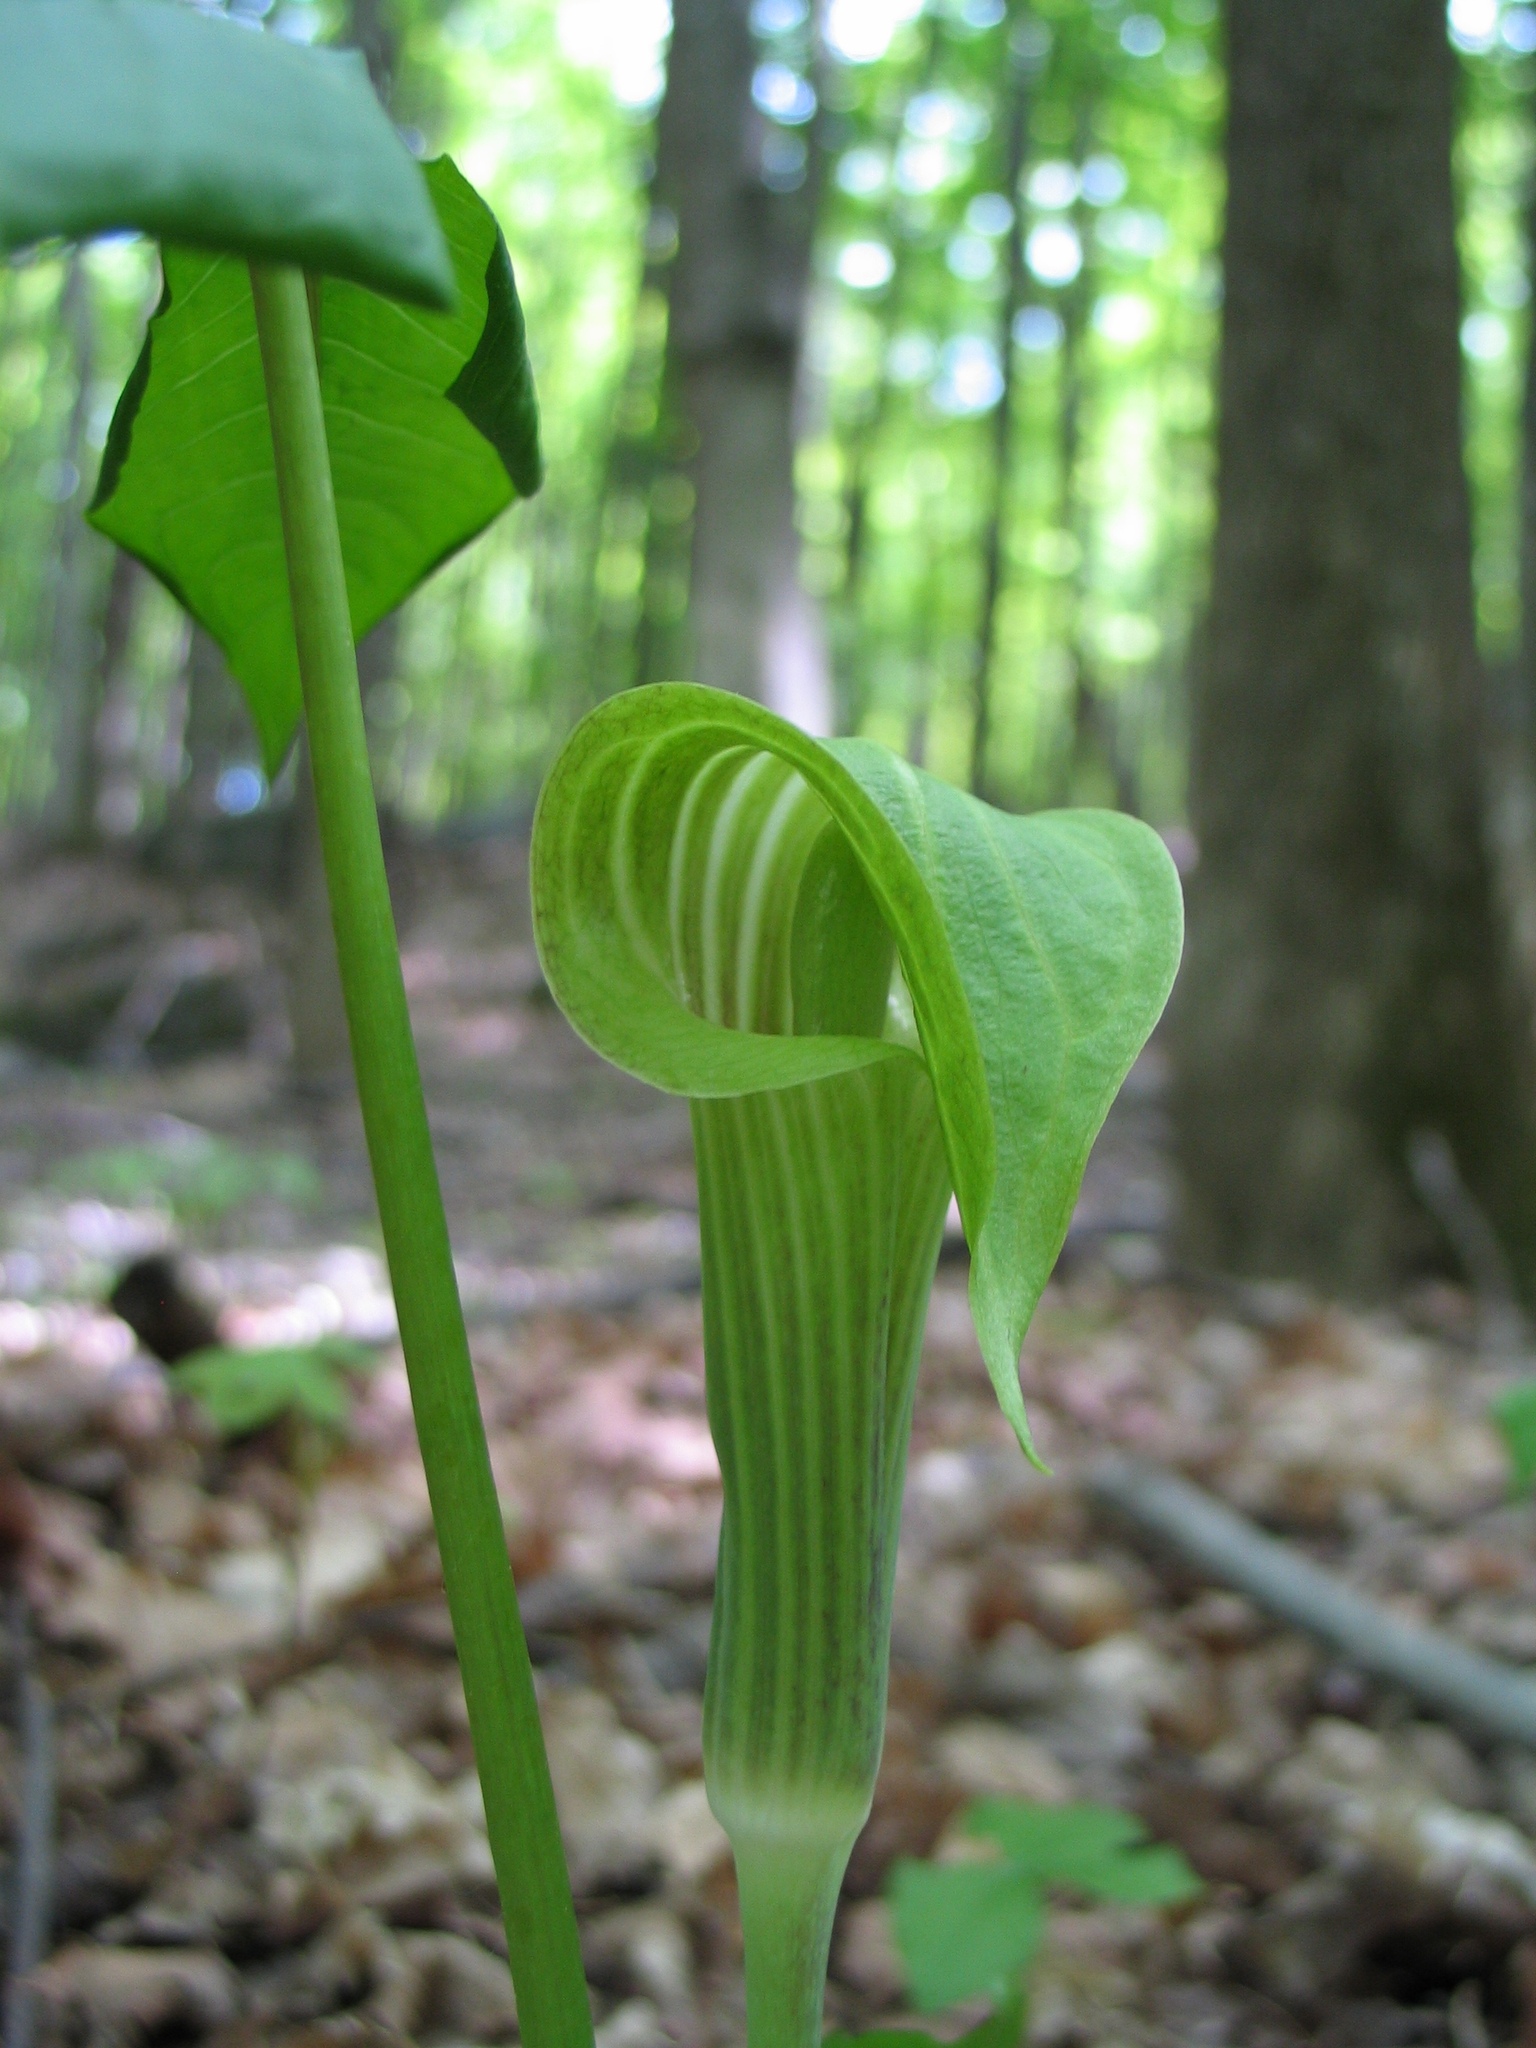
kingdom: Plantae
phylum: Tracheophyta
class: Liliopsida
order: Alismatales
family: Araceae
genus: Arisaema
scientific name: Arisaema triphyllum
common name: Jack-in-the-pulpit
